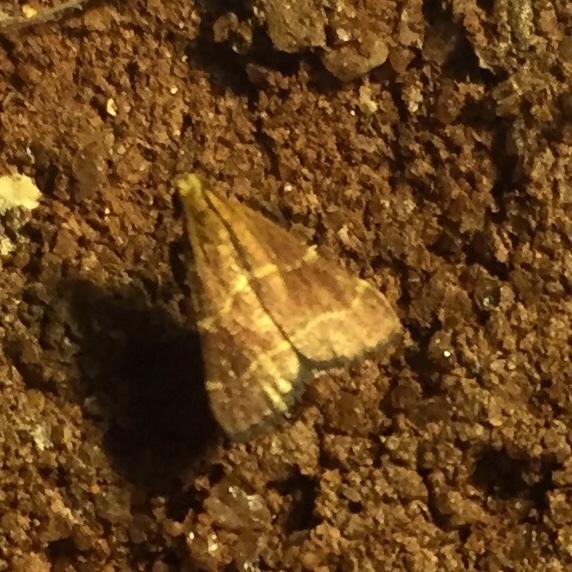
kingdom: Animalia
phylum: Arthropoda
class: Insecta
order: Lepidoptera
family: Pyralidae
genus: Arta
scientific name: Arta statalis
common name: Posturing arta moth
